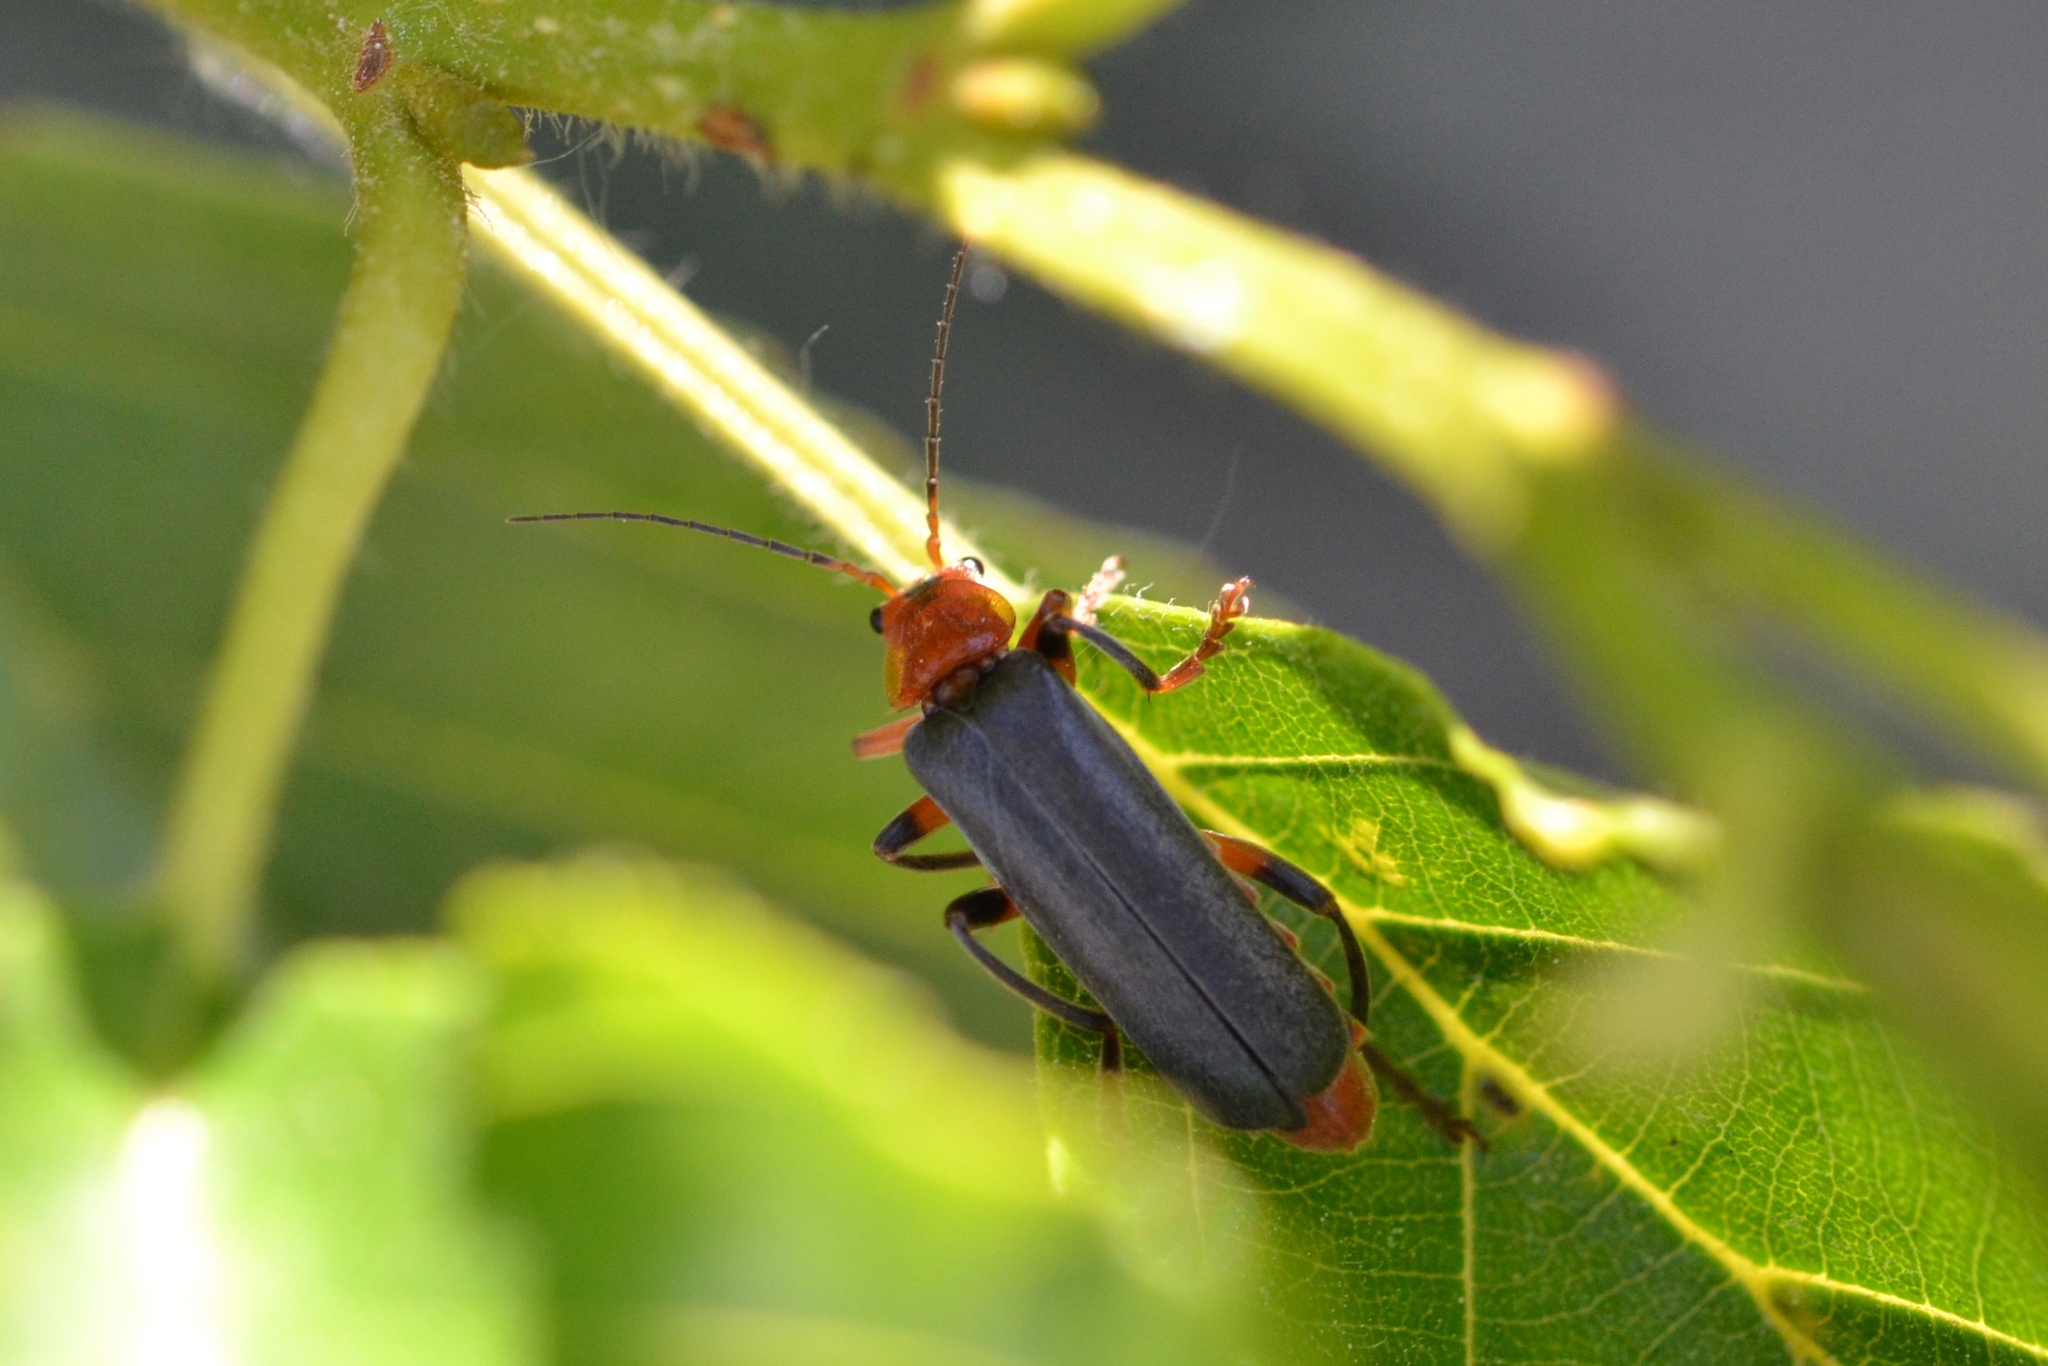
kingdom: Animalia
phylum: Arthropoda
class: Insecta
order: Coleoptera
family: Cantharidae
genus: Cantharis
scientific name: Cantharis livida
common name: Livid soldier beetle
